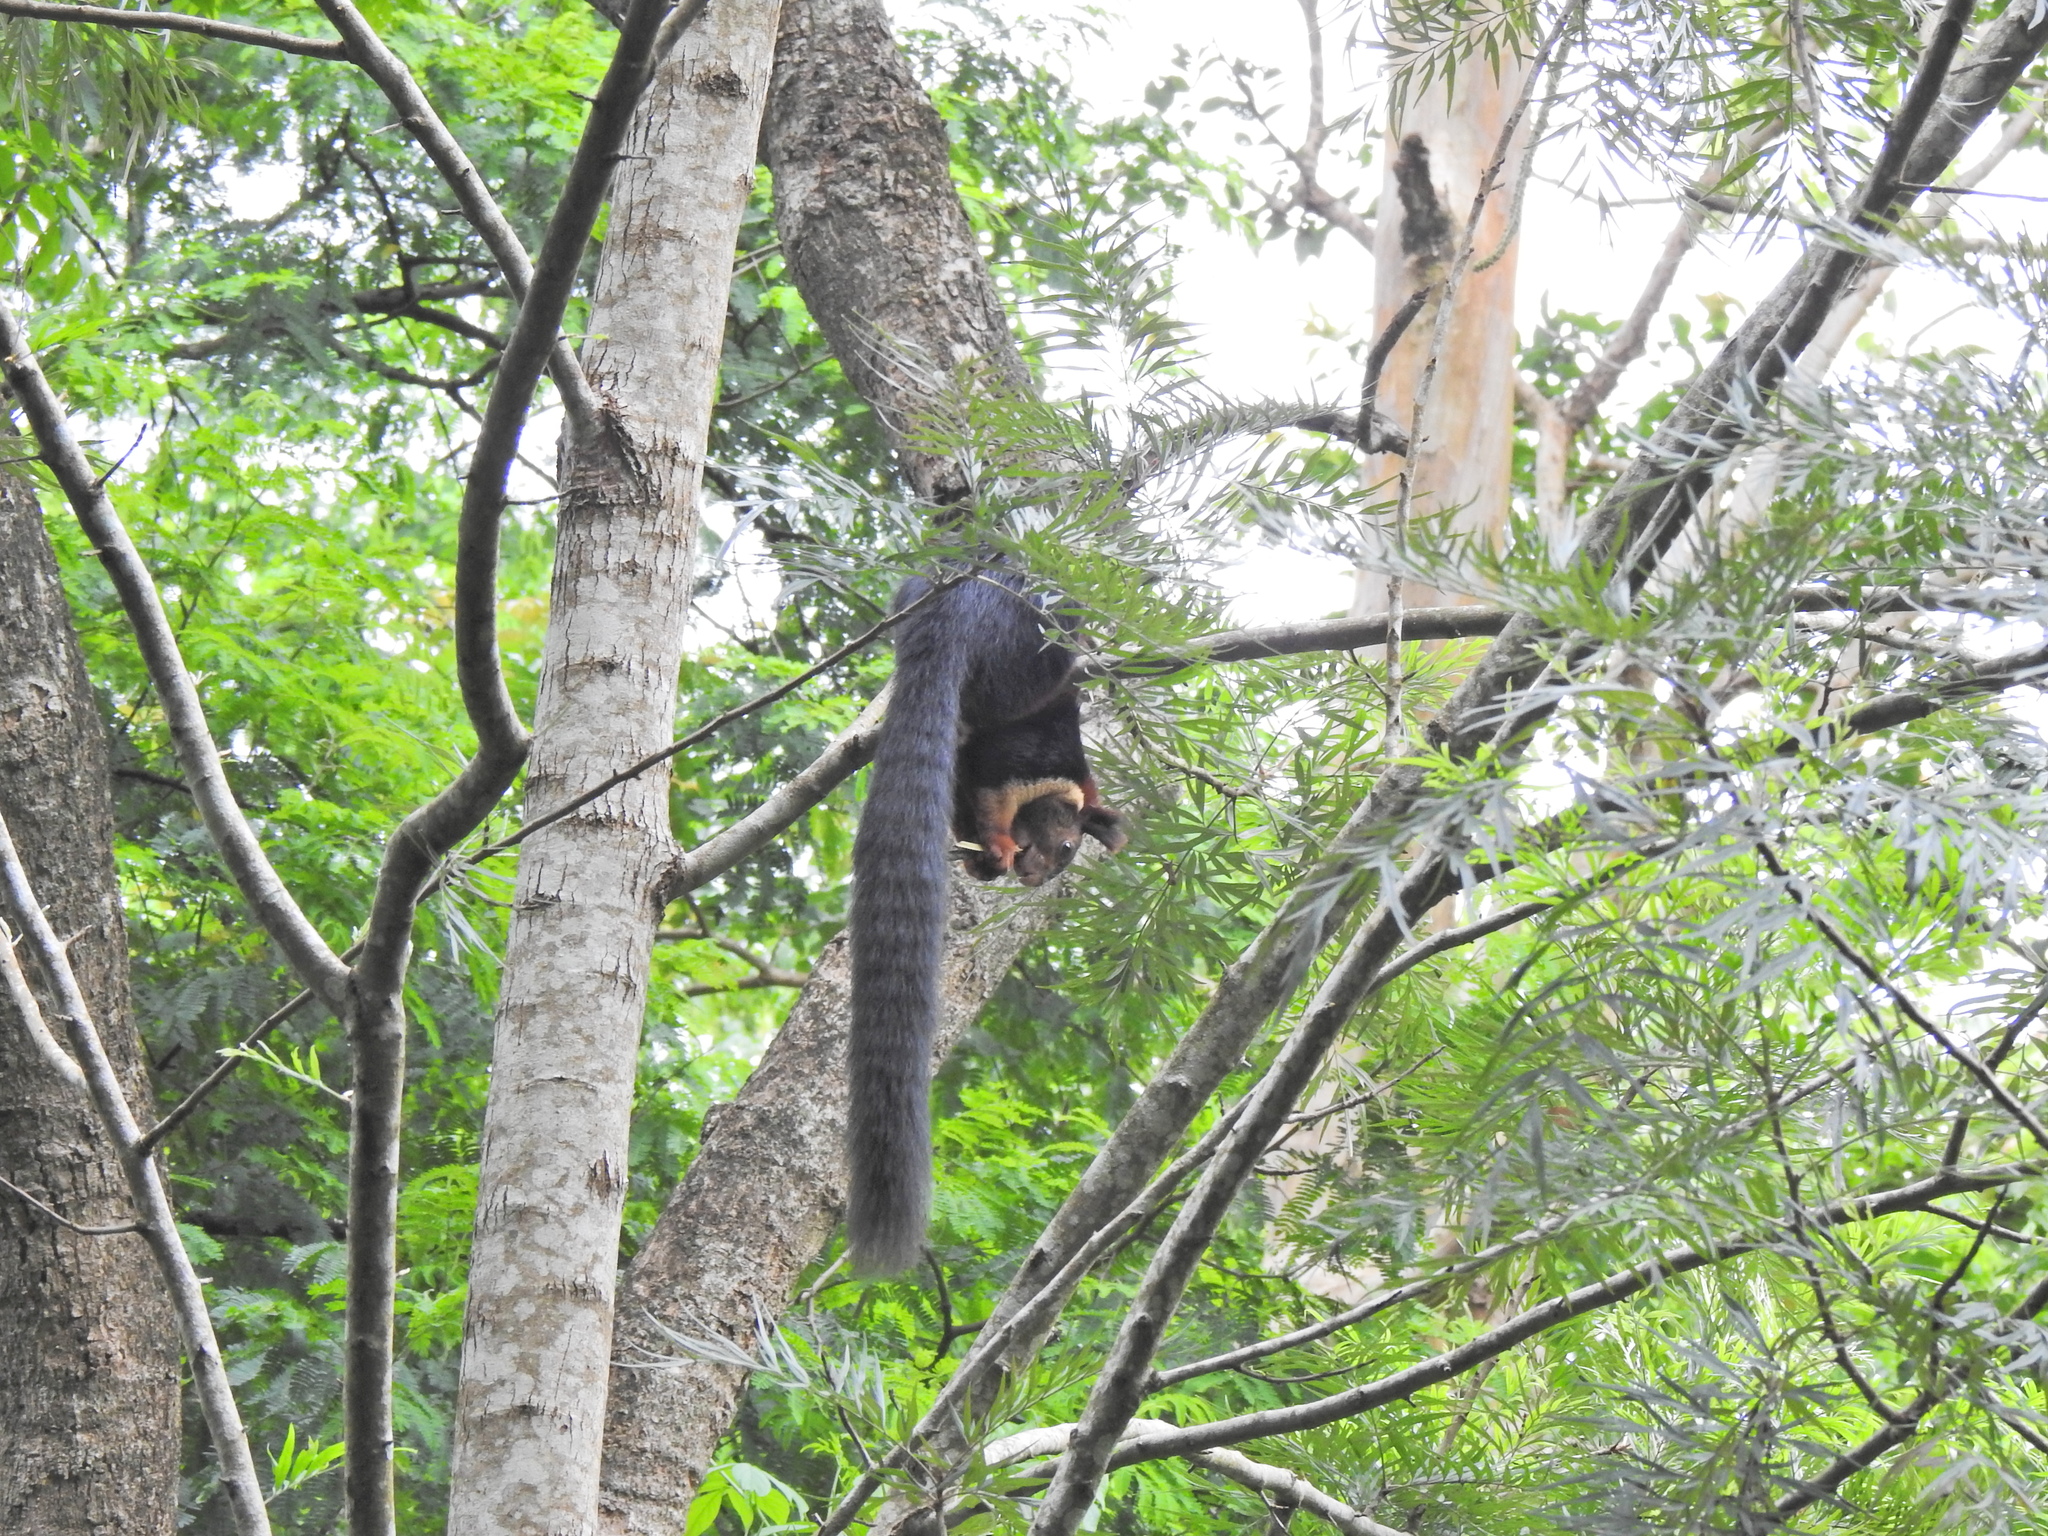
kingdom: Animalia
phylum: Chordata
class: Mammalia
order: Rodentia
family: Sciuridae
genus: Ratufa
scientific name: Ratufa indica
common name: Indian giant squirrel
